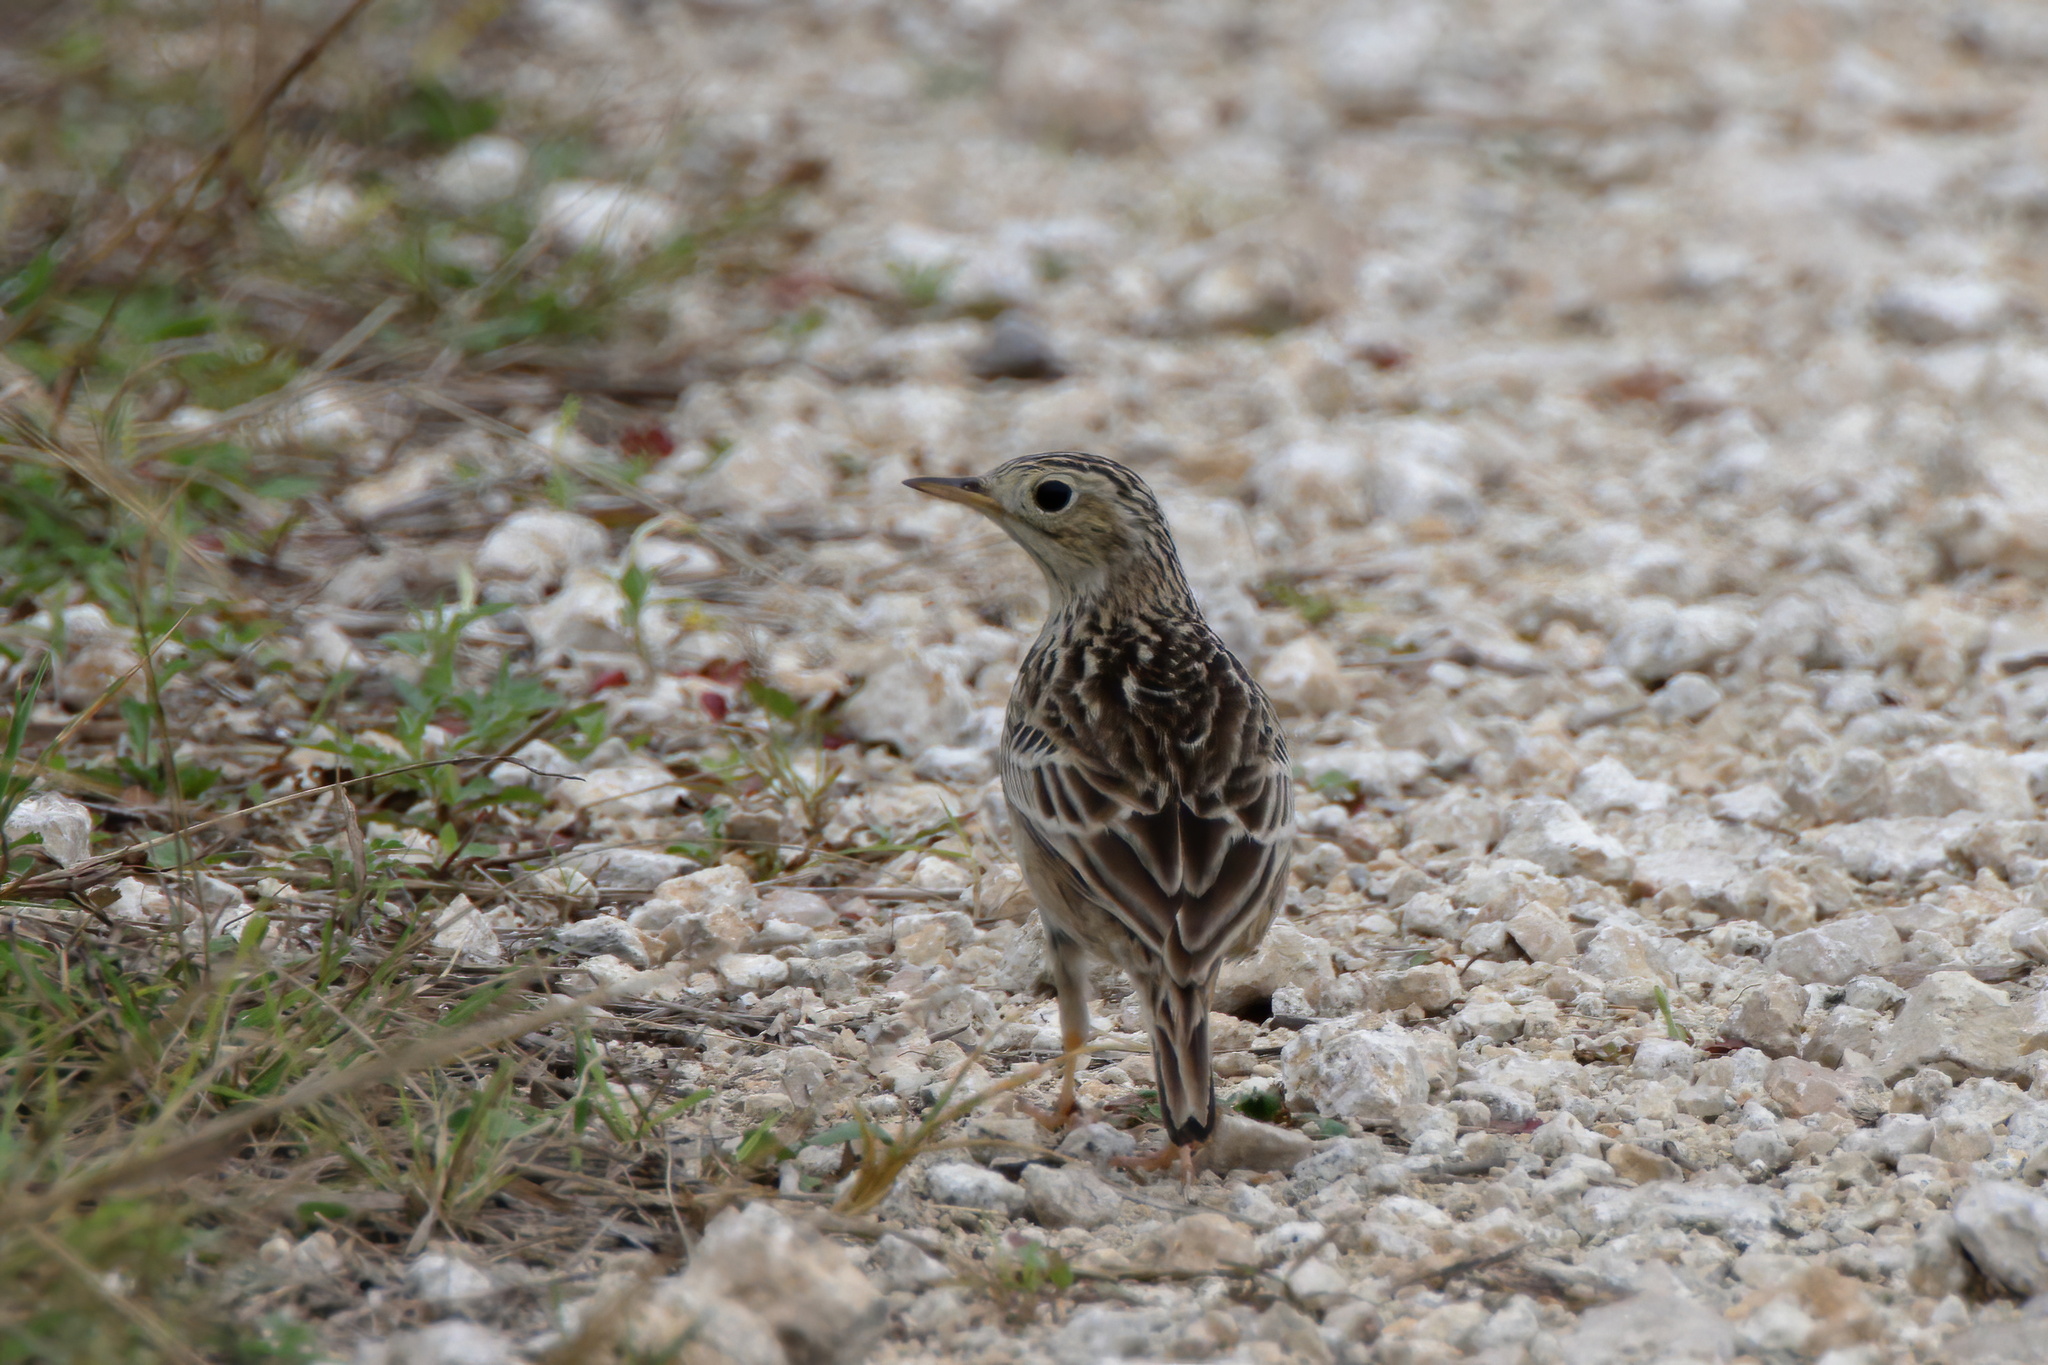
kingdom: Animalia
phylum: Chordata
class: Aves
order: Passeriformes
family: Motacillidae
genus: Anthus
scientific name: Anthus spragueii
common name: Sprague's pipit
